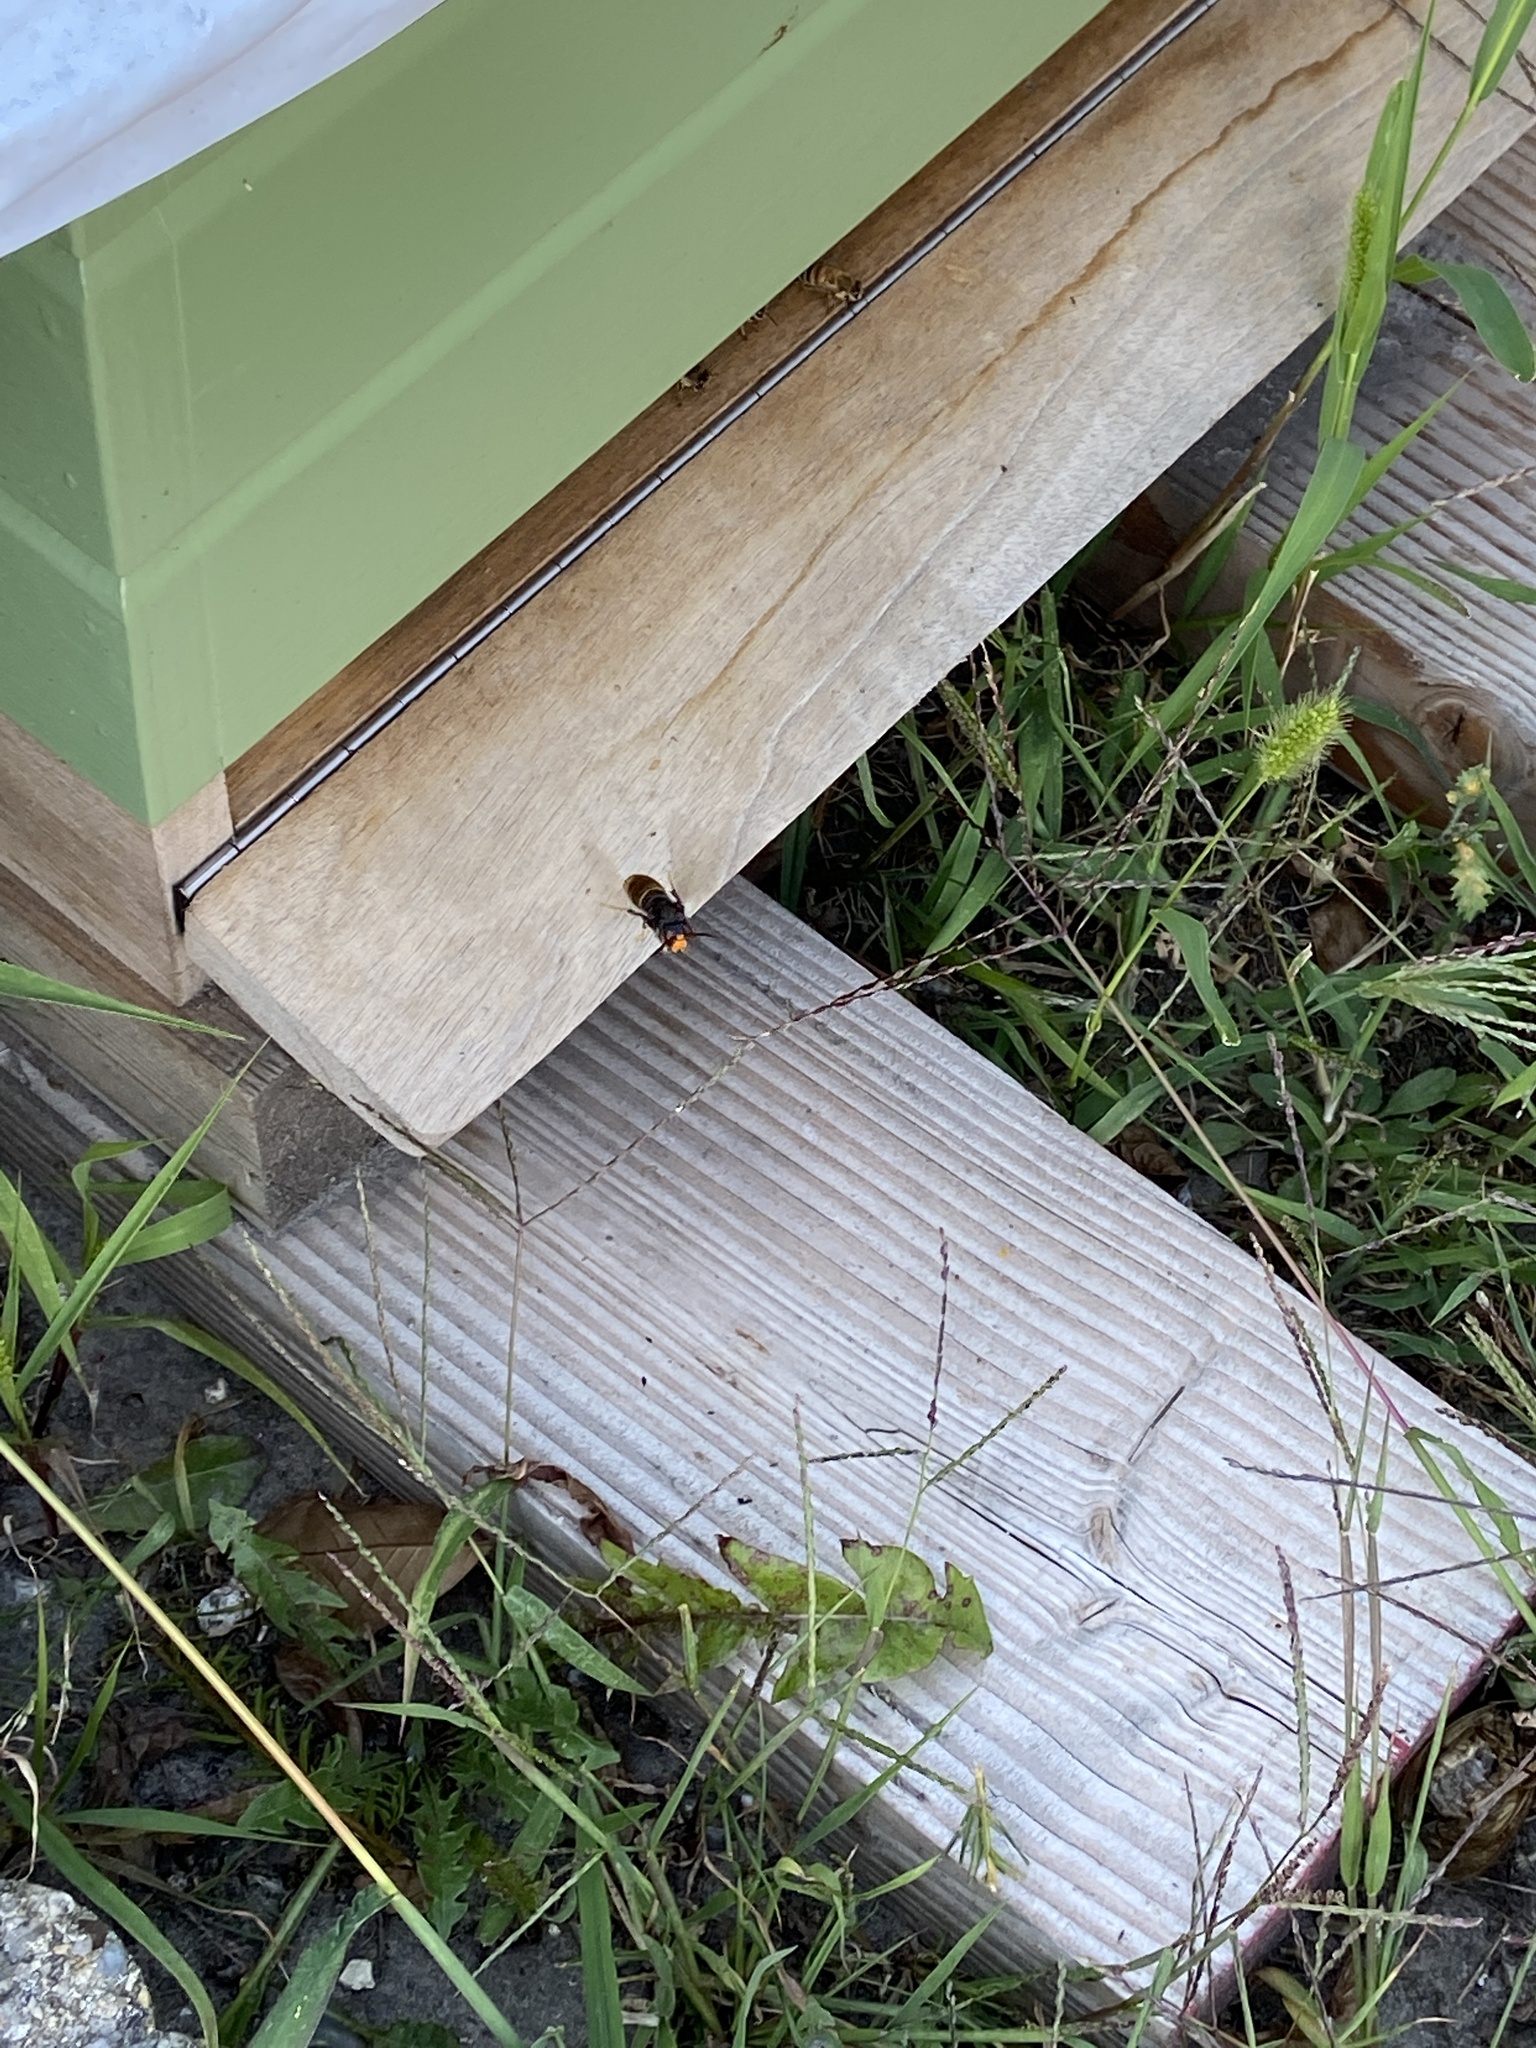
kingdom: Animalia
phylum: Arthropoda
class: Insecta
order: Hymenoptera
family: Vespidae
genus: Vespa
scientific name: Vespa velutina
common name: Asian hornet
